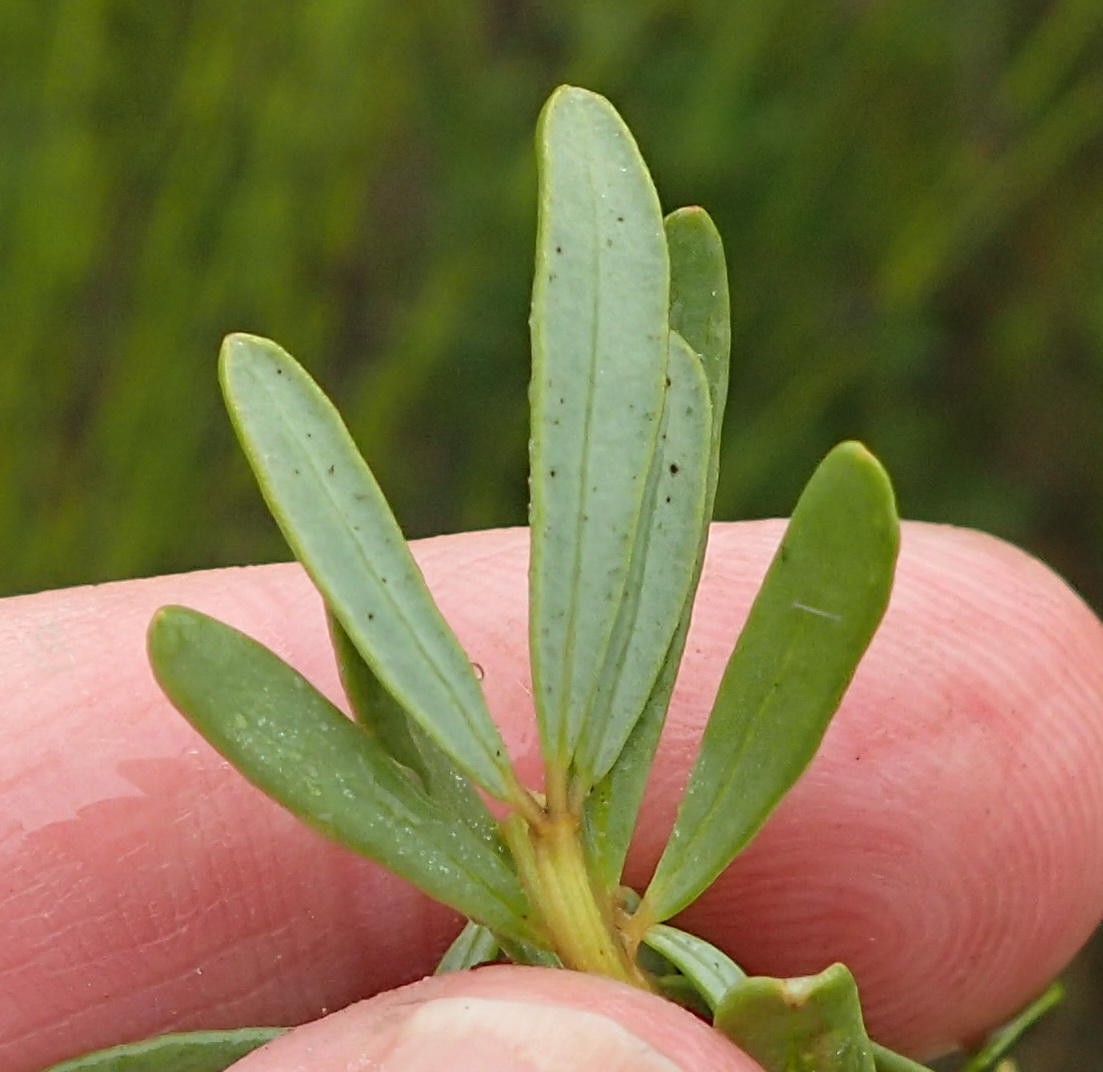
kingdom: Plantae
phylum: Tracheophyta
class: Magnoliopsida
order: Fabales
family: Fabaceae
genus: Cyclopia
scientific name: Cyclopia subternata
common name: Honeybush tea
